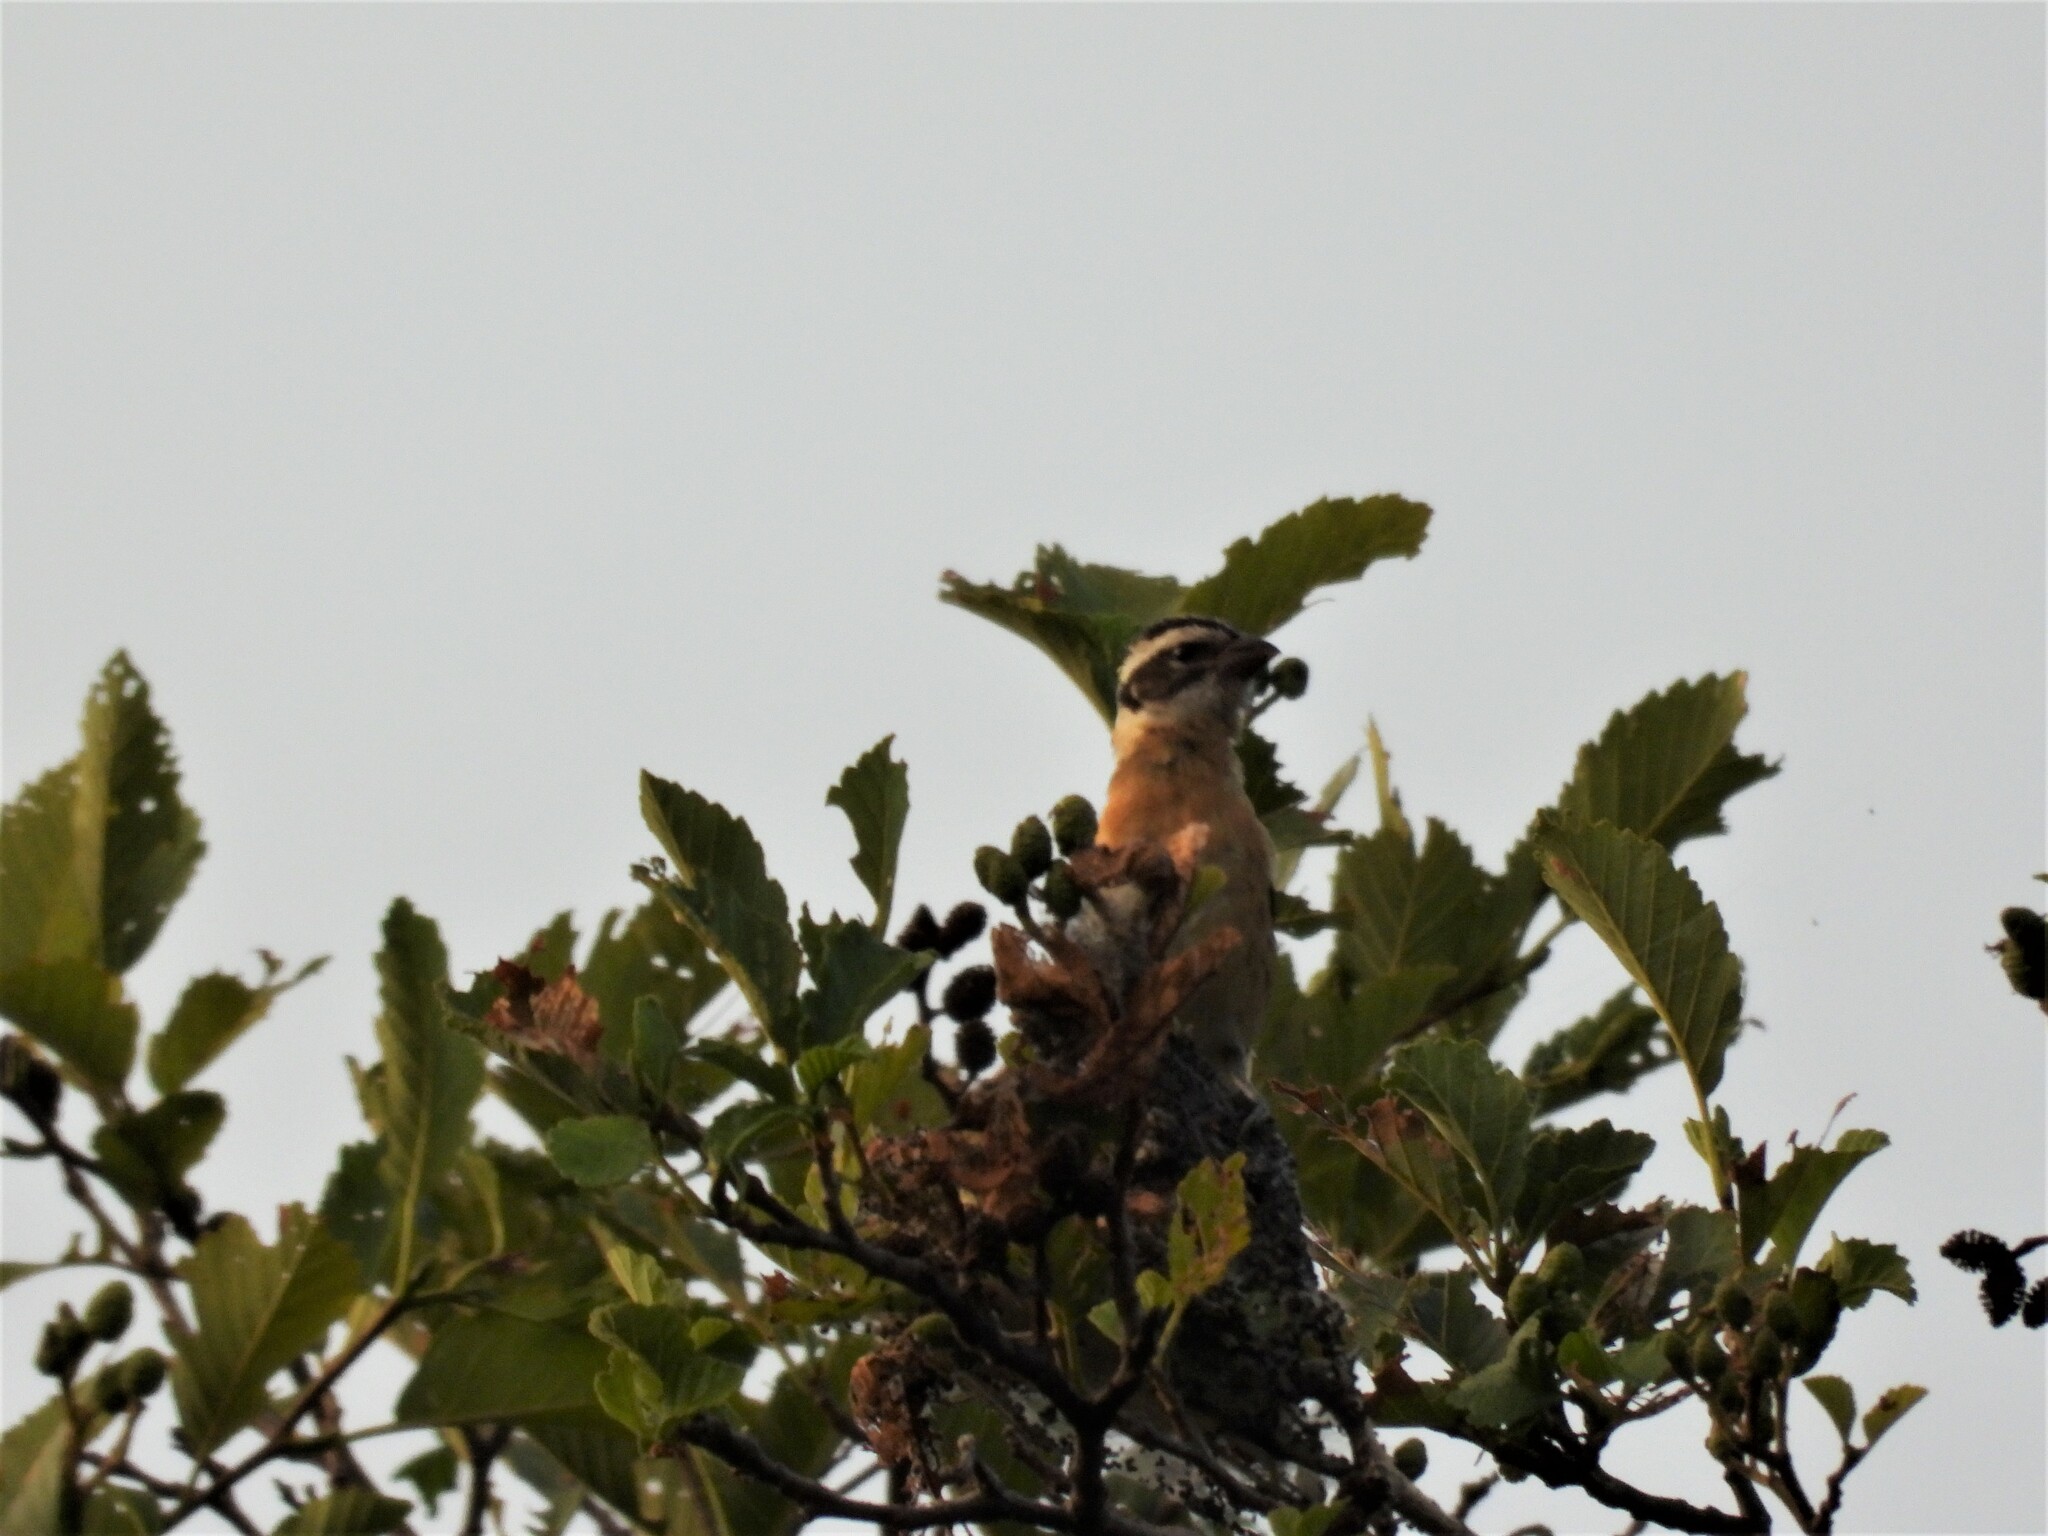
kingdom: Animalia
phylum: Chordata
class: Aves
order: Passeriformes
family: Cardinalidae
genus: Pheucticus
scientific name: Pheucticus melanocephalus
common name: Black-headed grosbeak
